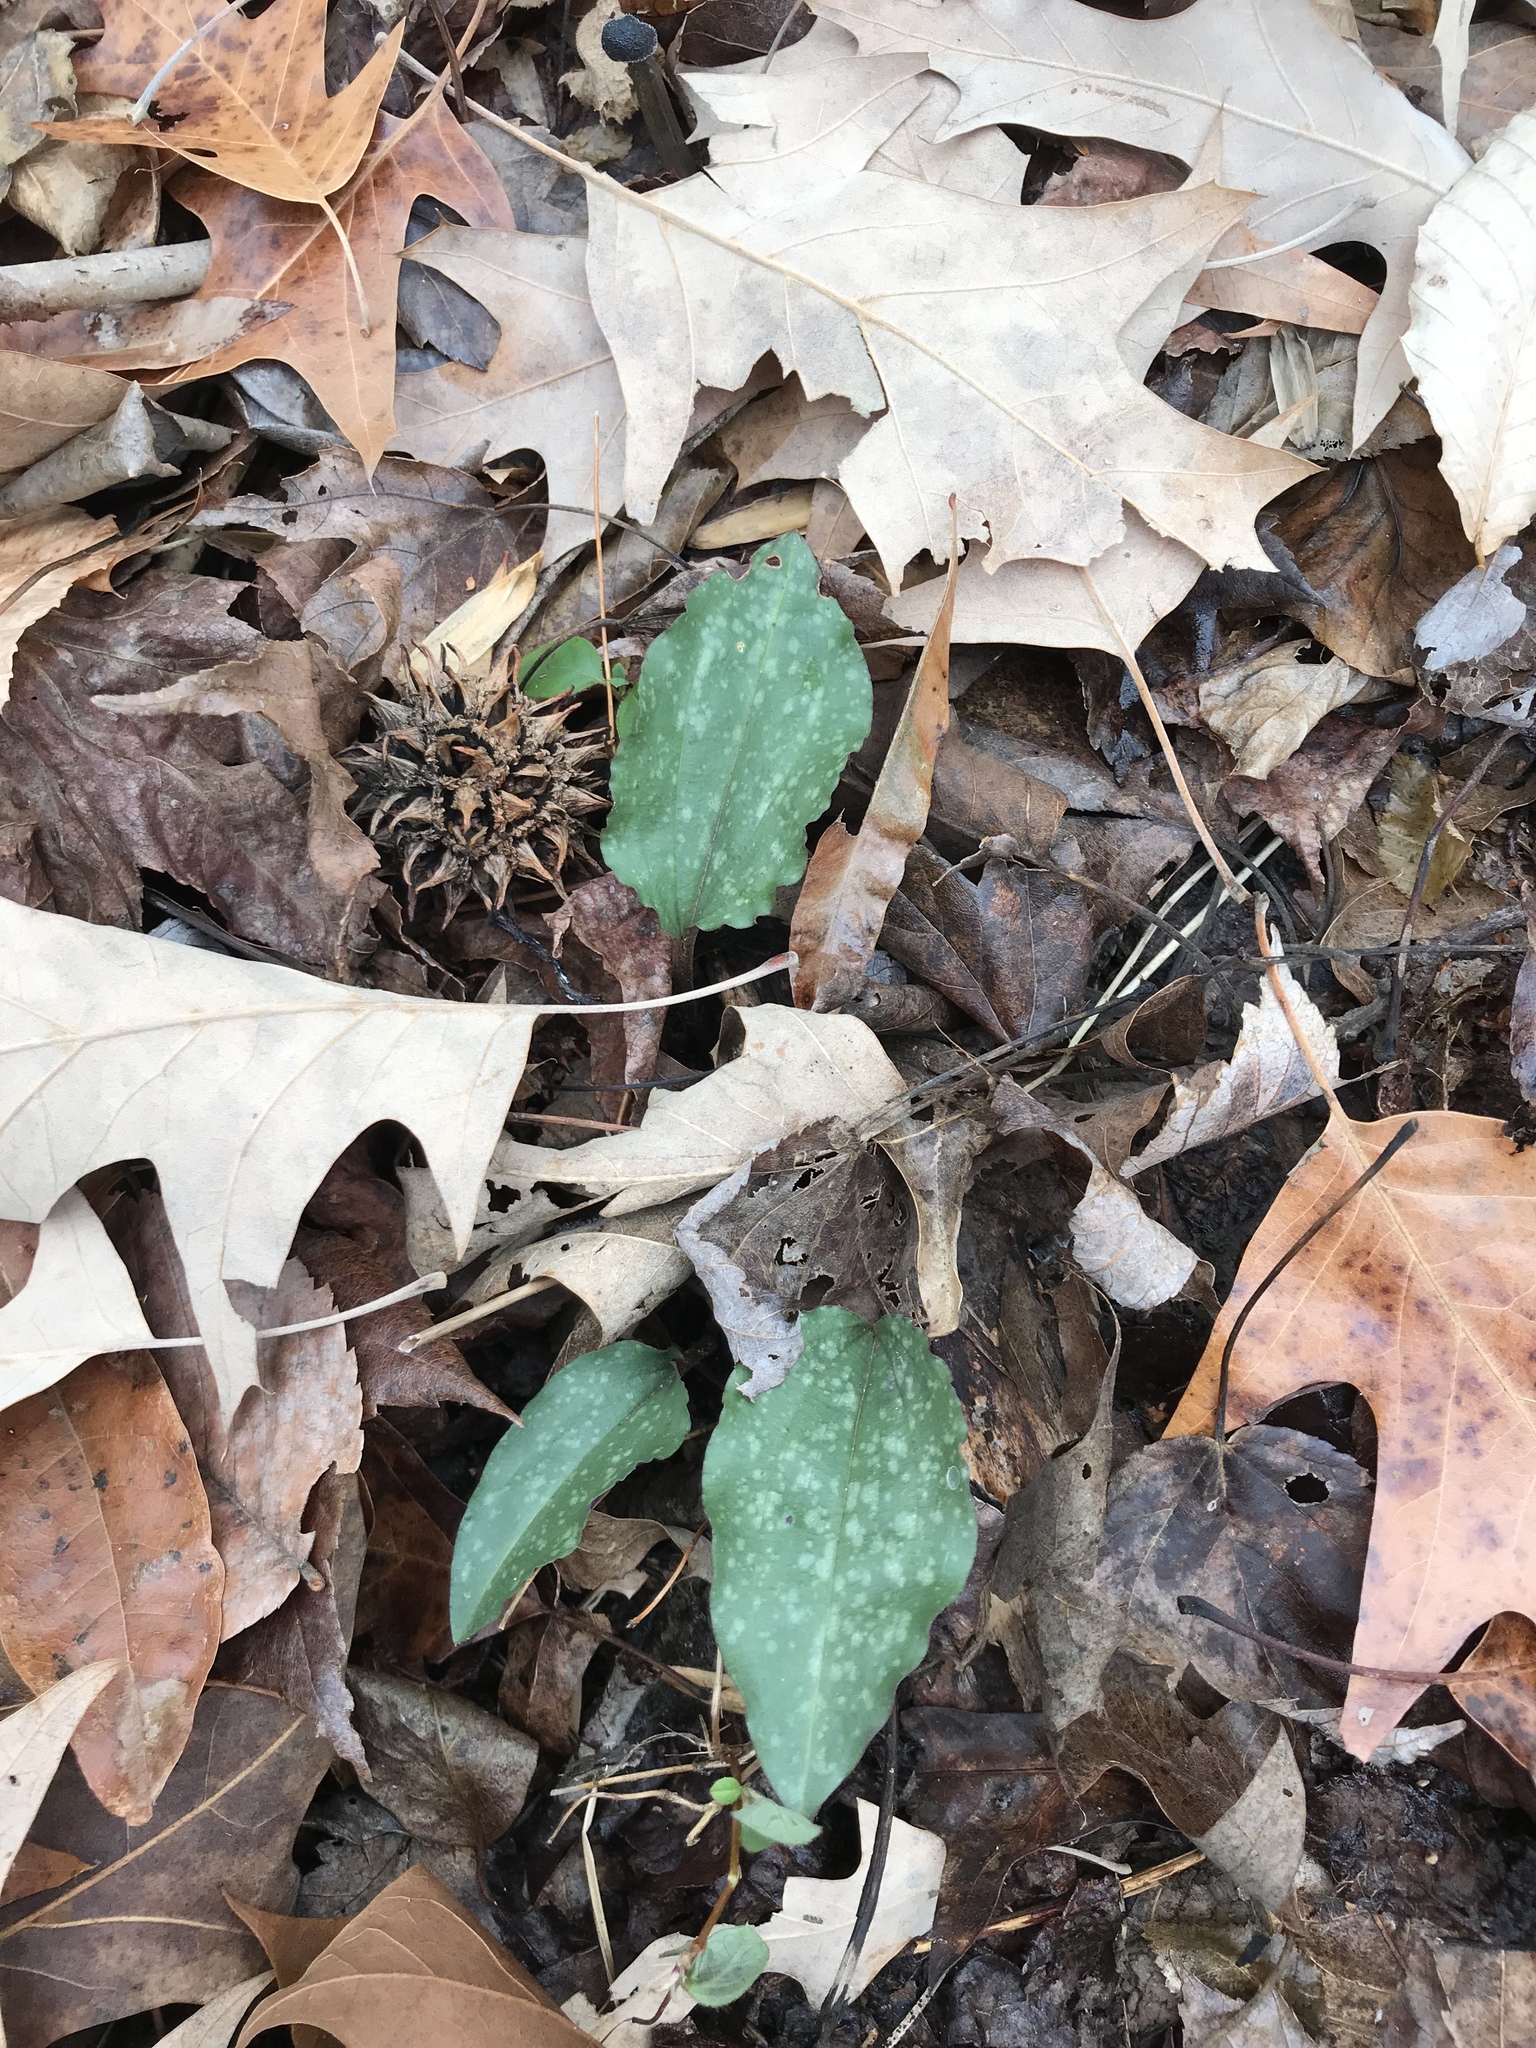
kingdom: Plantae
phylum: Tracheophyta
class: Liliopsida
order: Asparagales
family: Orchidaceae
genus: Tipularia
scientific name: Tipularia discolor
